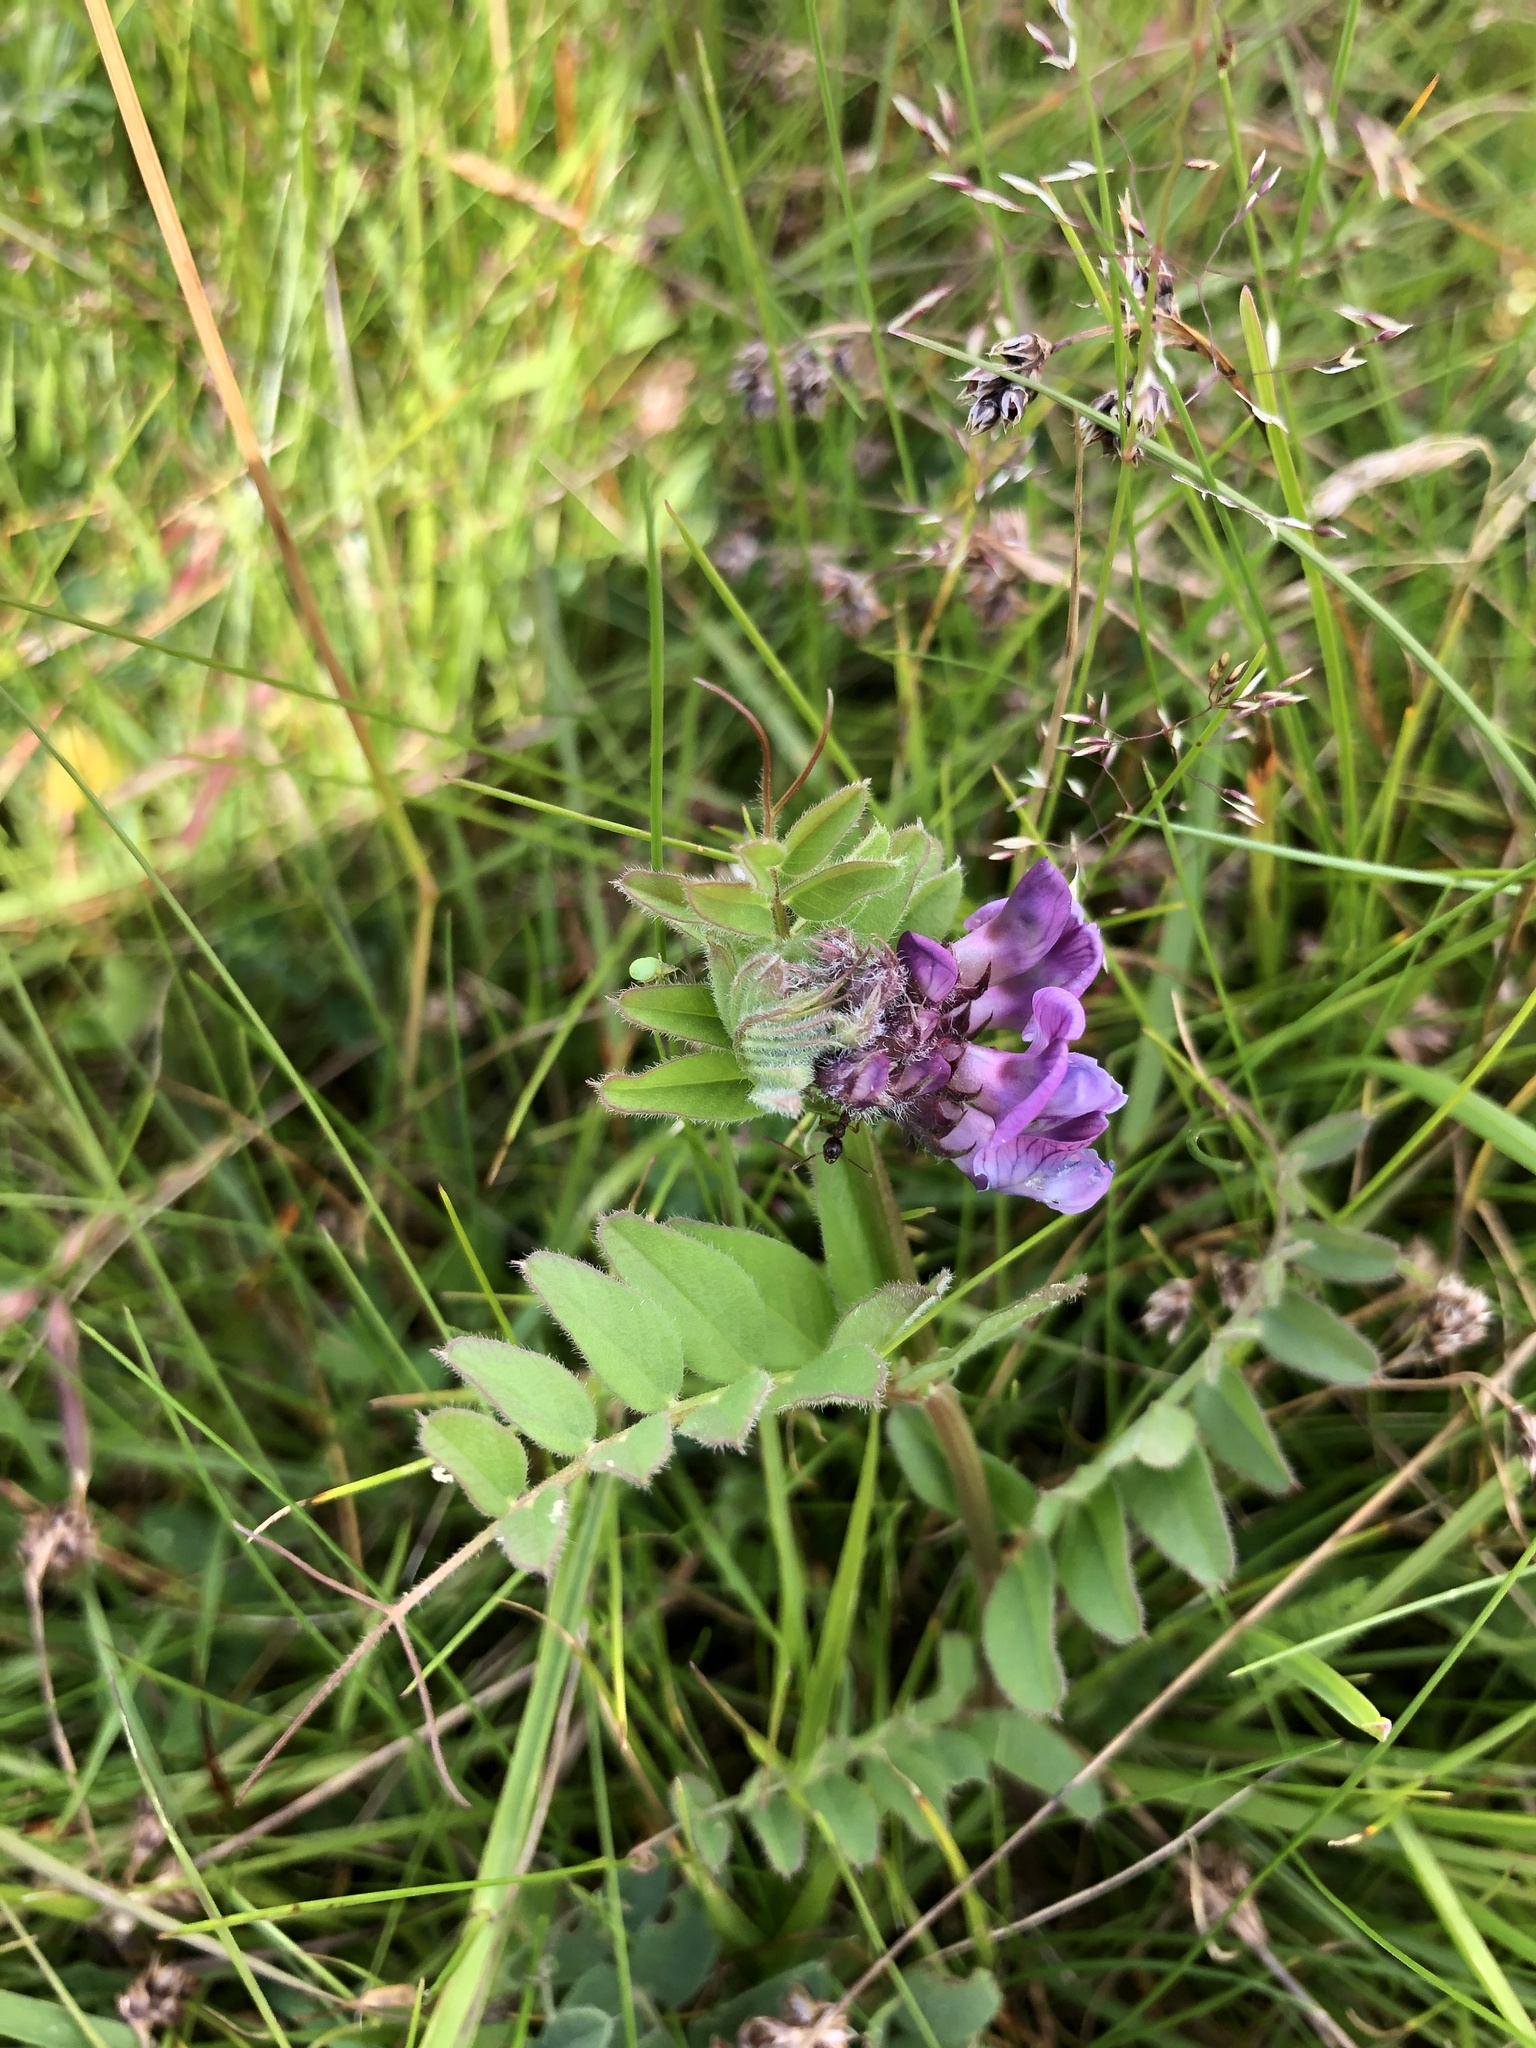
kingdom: Plantae
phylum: Tracheophyta
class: Magnoliopsida
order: Fabales
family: Fabaceae
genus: Vicia
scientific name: Vicia sepium
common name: Bush vetch
